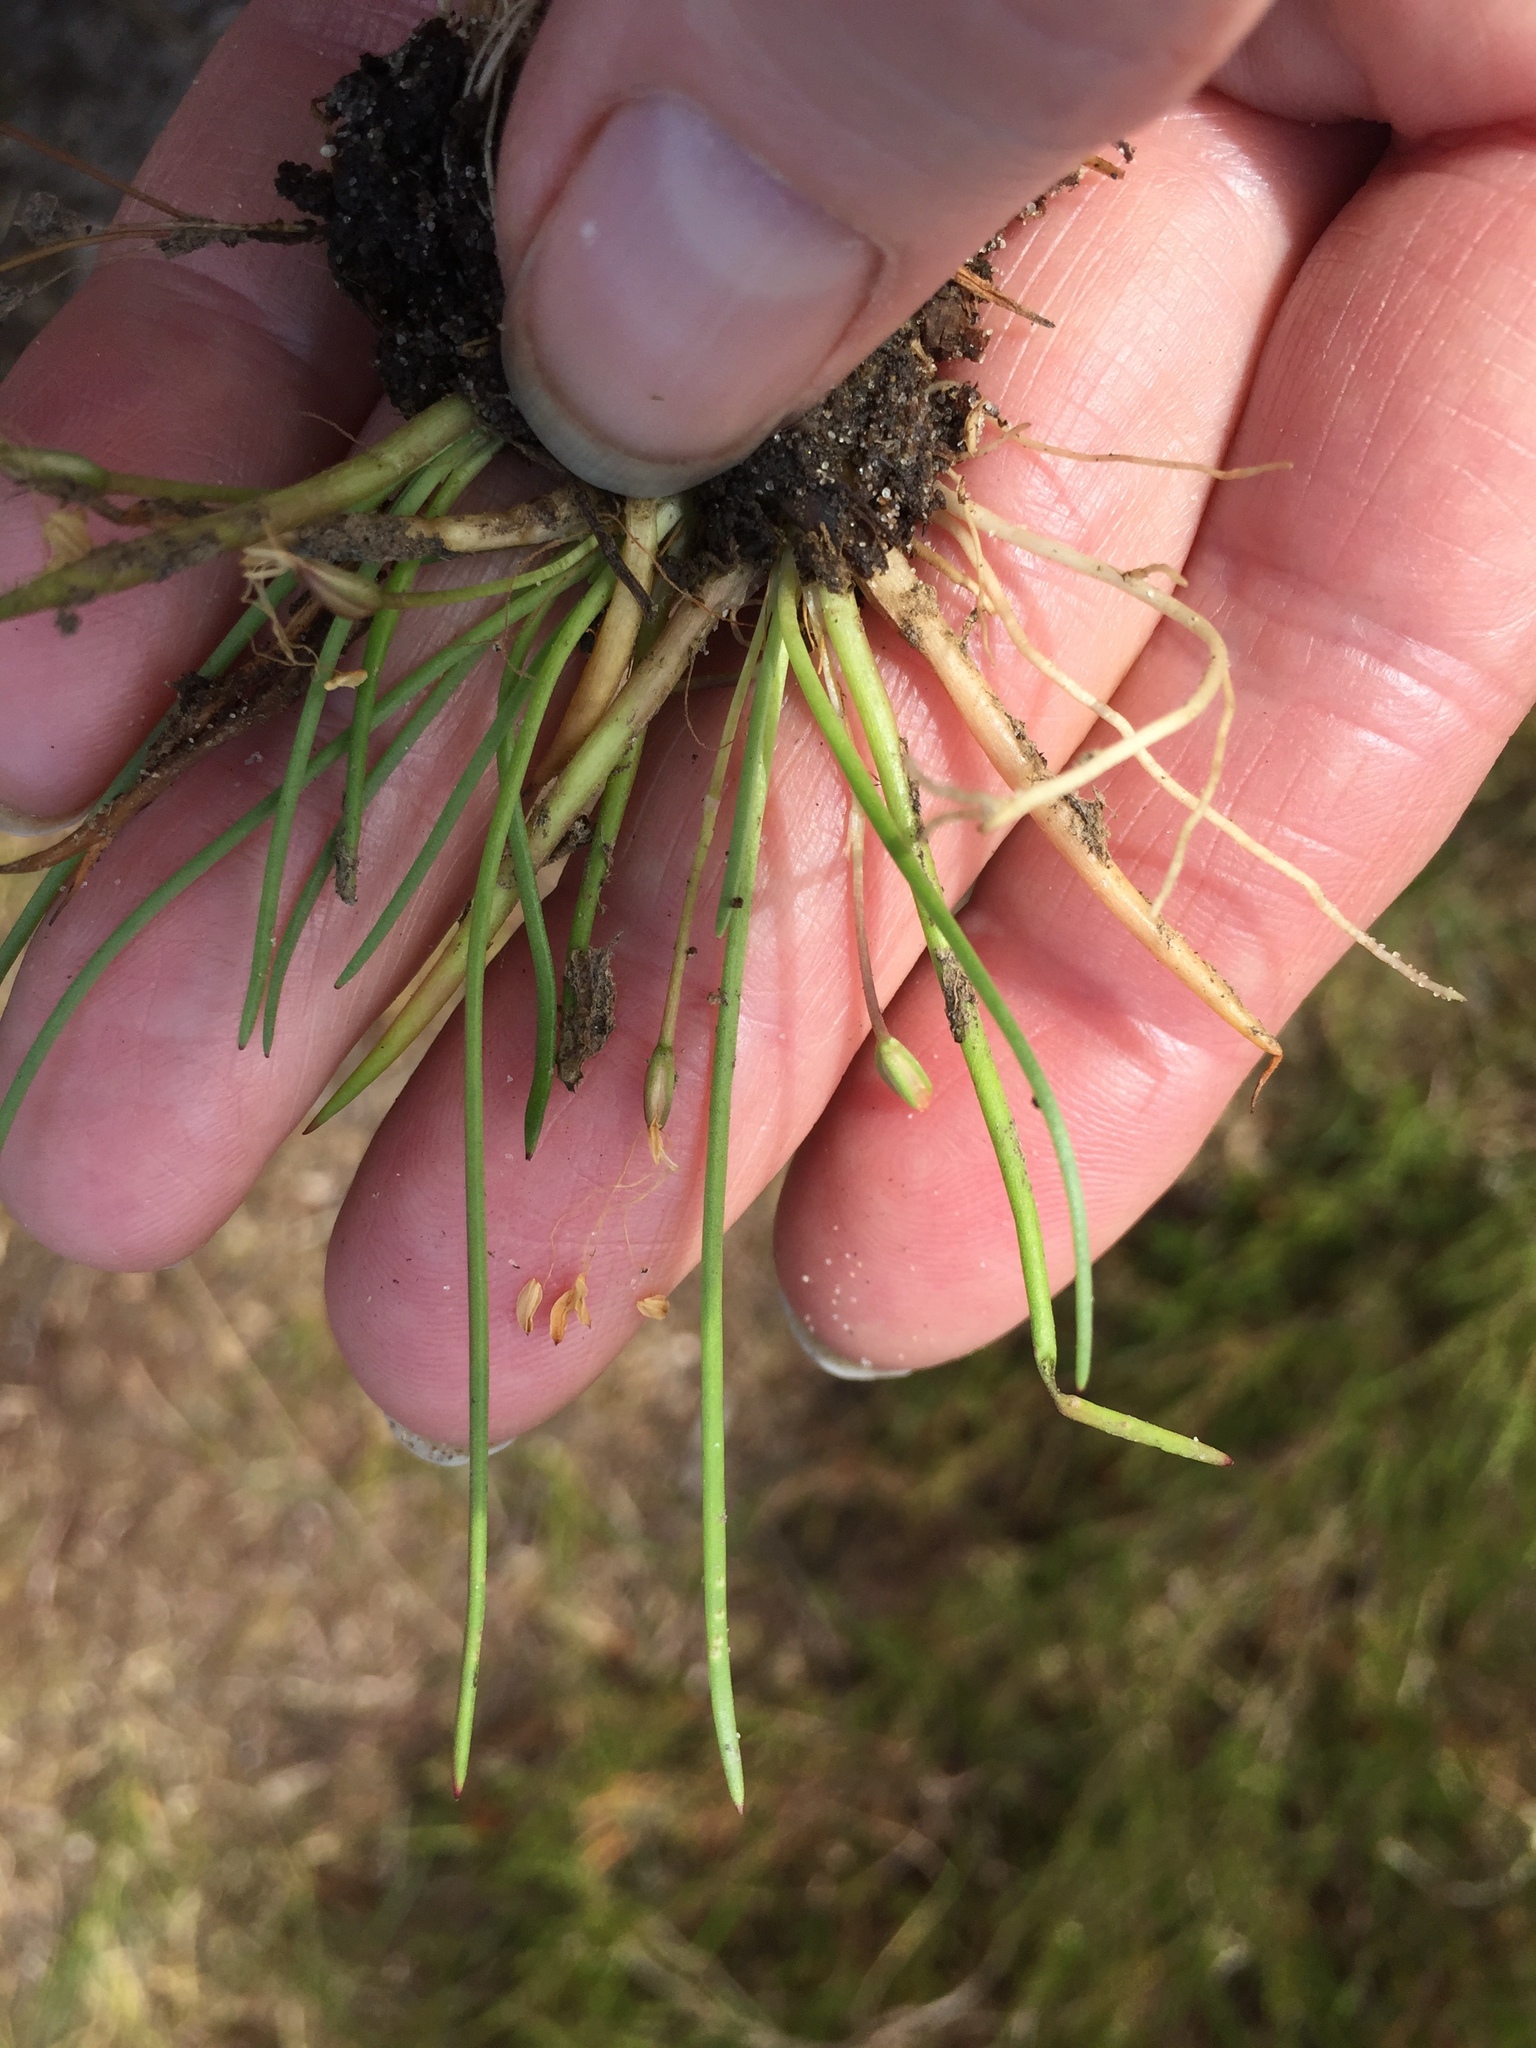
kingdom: Plantae
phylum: Tracheophyta
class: Magnoliopsida
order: Lamiales
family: Plantaginaceae
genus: Littorella
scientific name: Littorella uniflora
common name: Shoreweed
